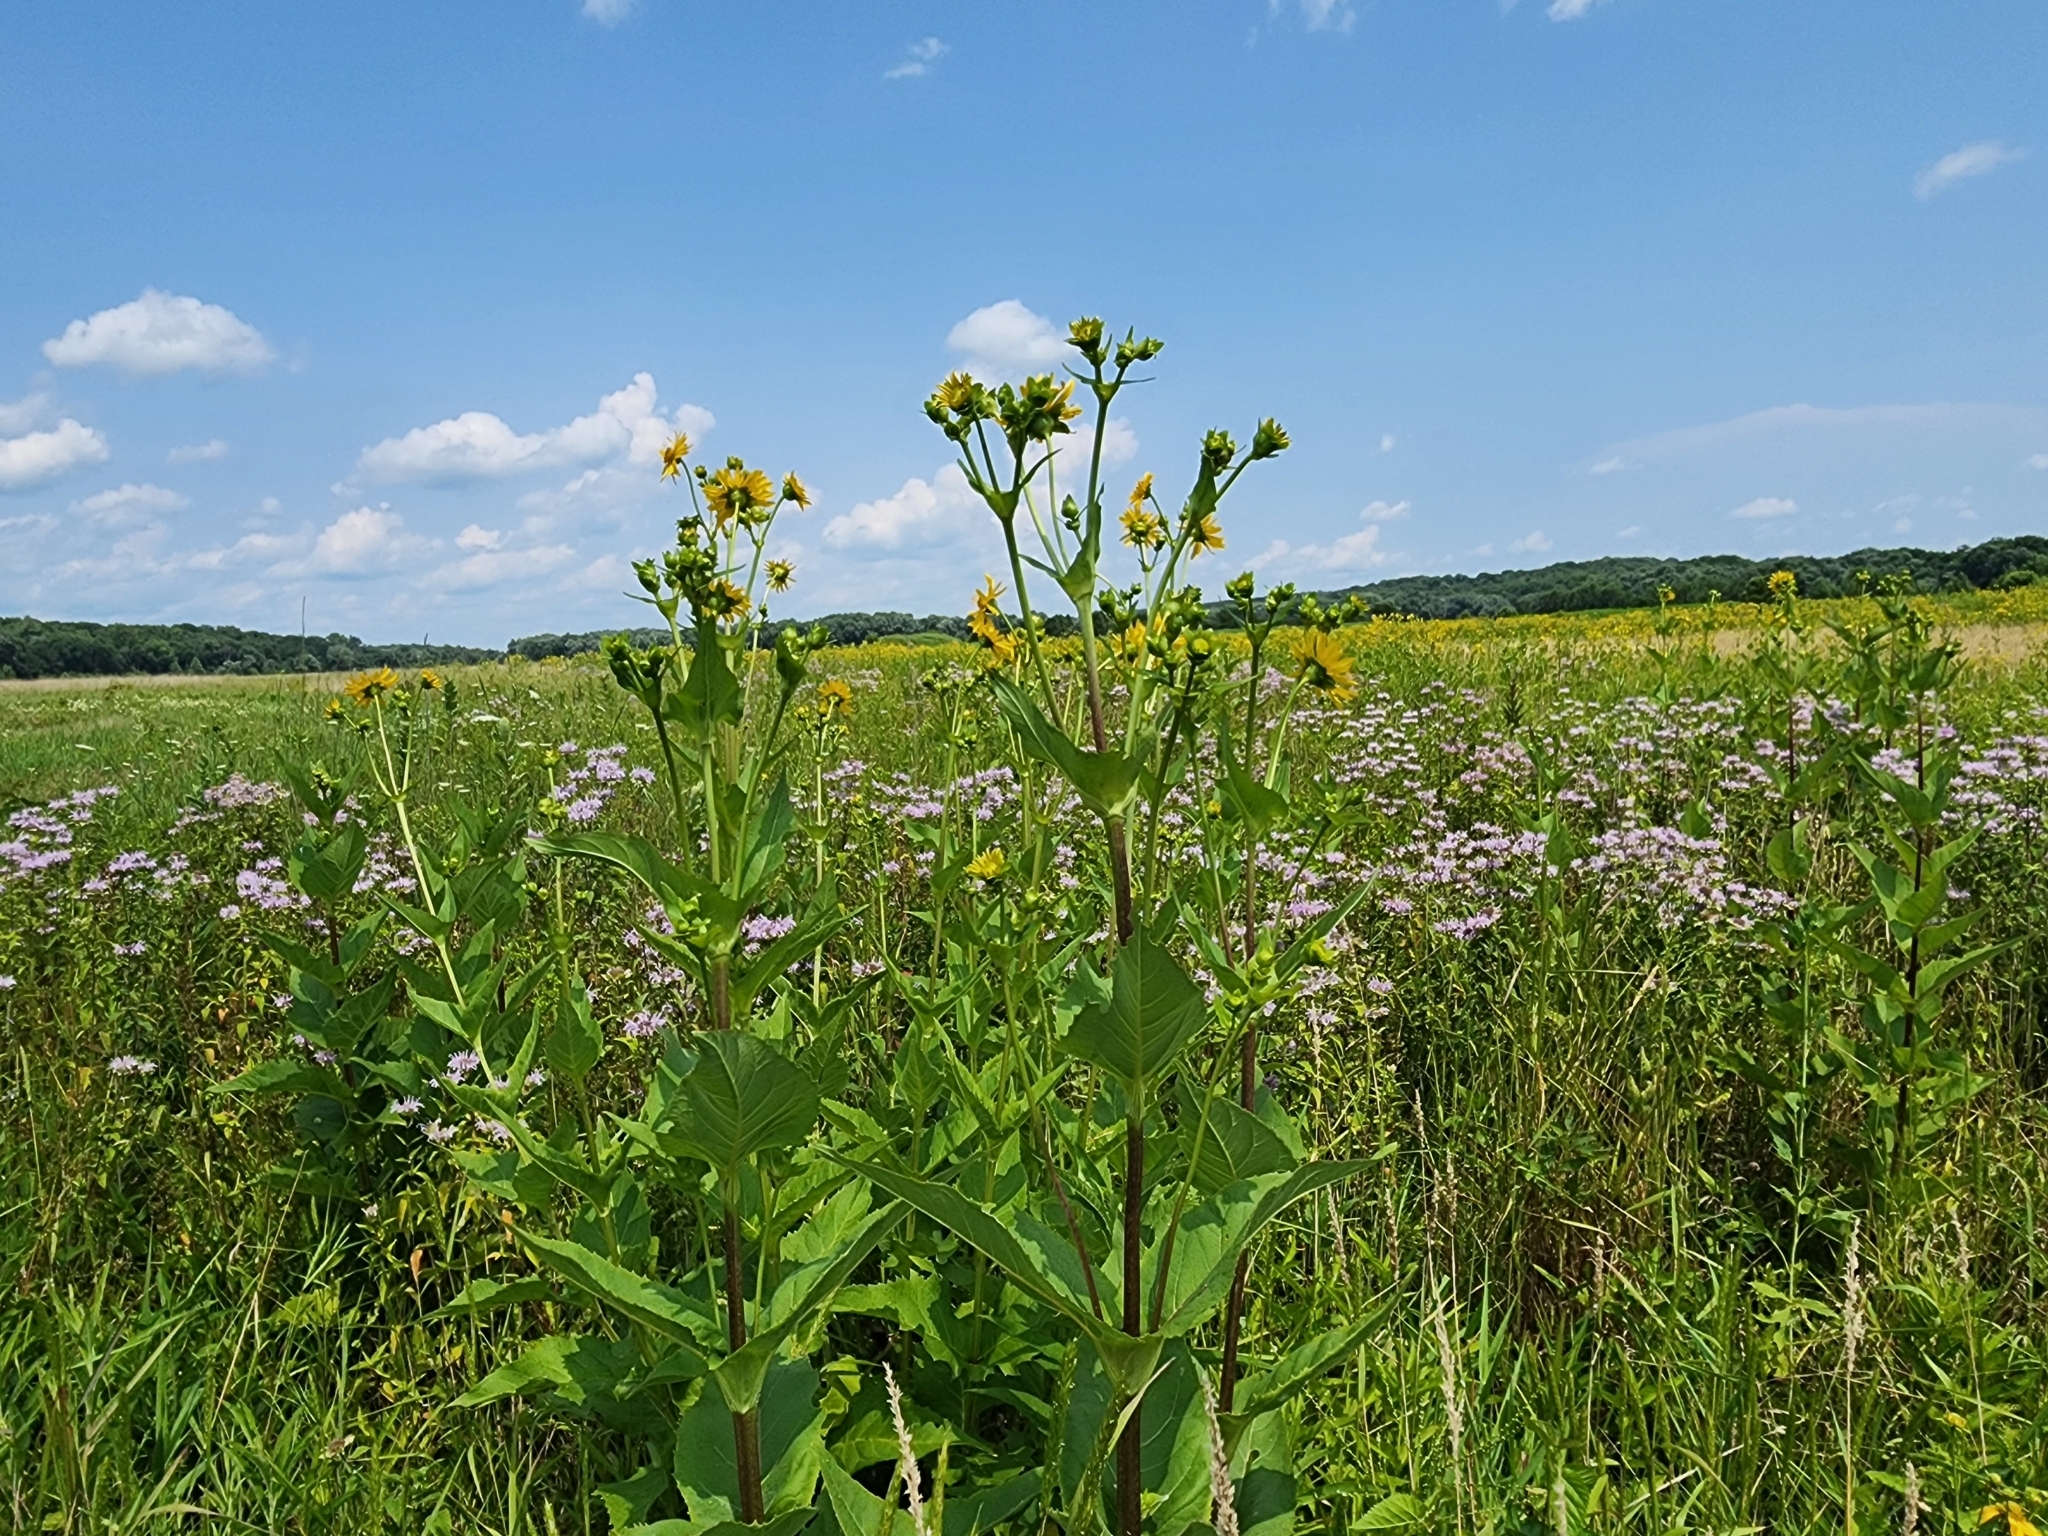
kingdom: Plantae
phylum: Tracheophyta
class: Magnoliopsida
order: Asterales
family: Asteraceae
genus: Silphium
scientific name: Silphium perfoliatum
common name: Cup-plant
